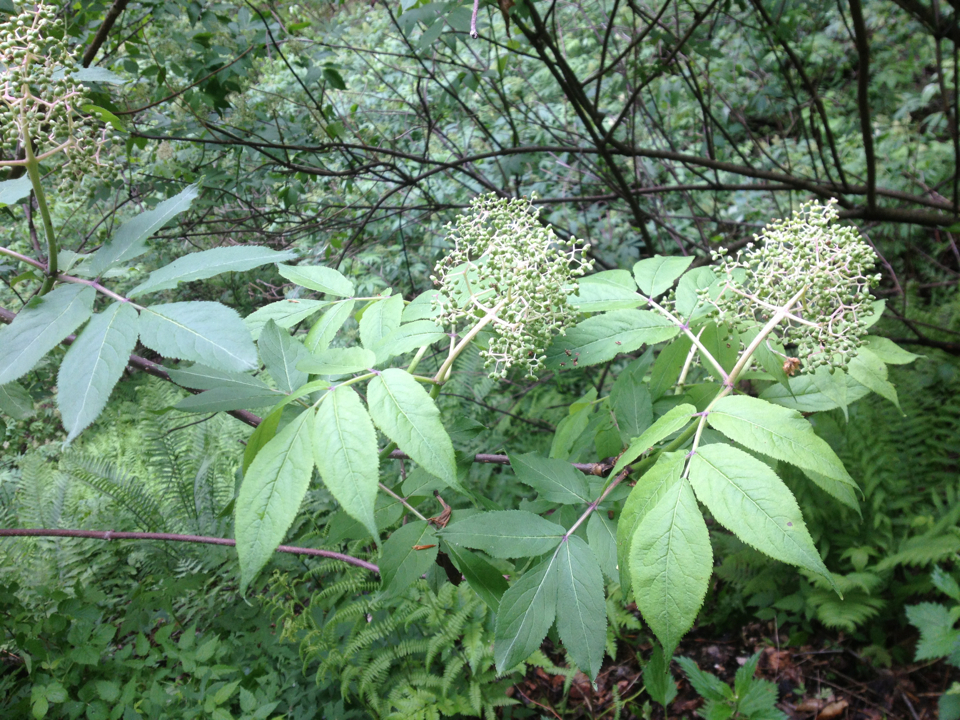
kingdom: Plantae
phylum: Tracheophyta
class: Magnoliopsida
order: Dipsacales
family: Viburnaceae
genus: Sambucus
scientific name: Sambucus racemosa
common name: Red-berried elder
